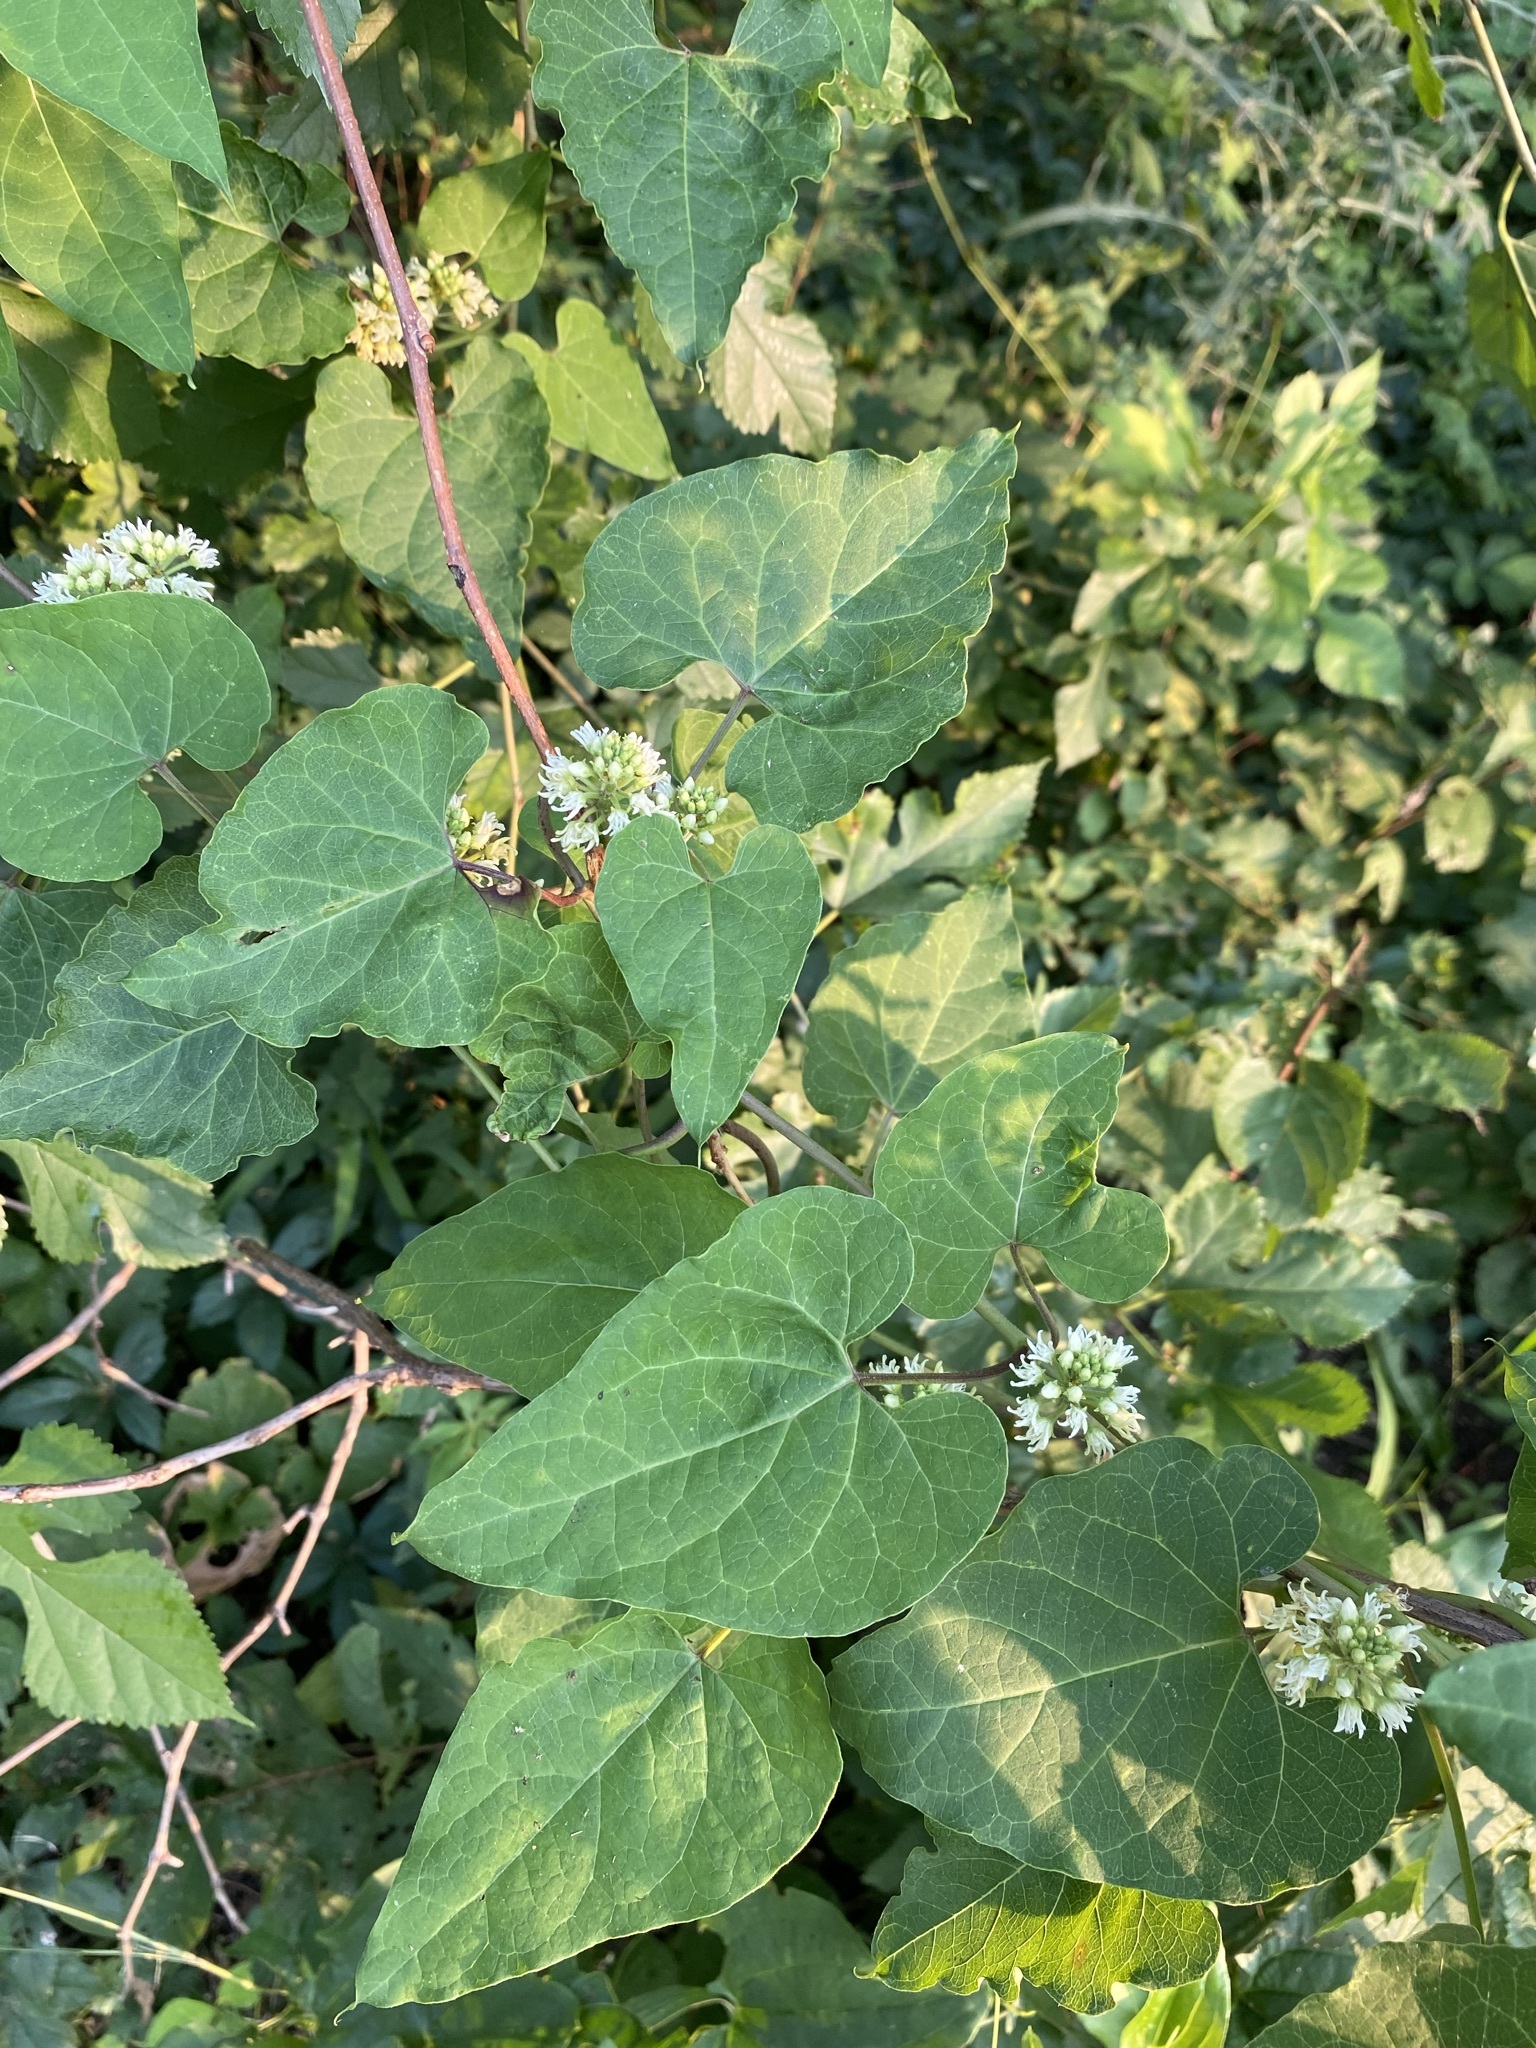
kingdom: Plantae
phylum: Tracheophyta
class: Magnoliopsida
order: Gentianales
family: Apocynaceae
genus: Cynanchum
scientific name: Cynanchum laeve
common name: Sandvine
